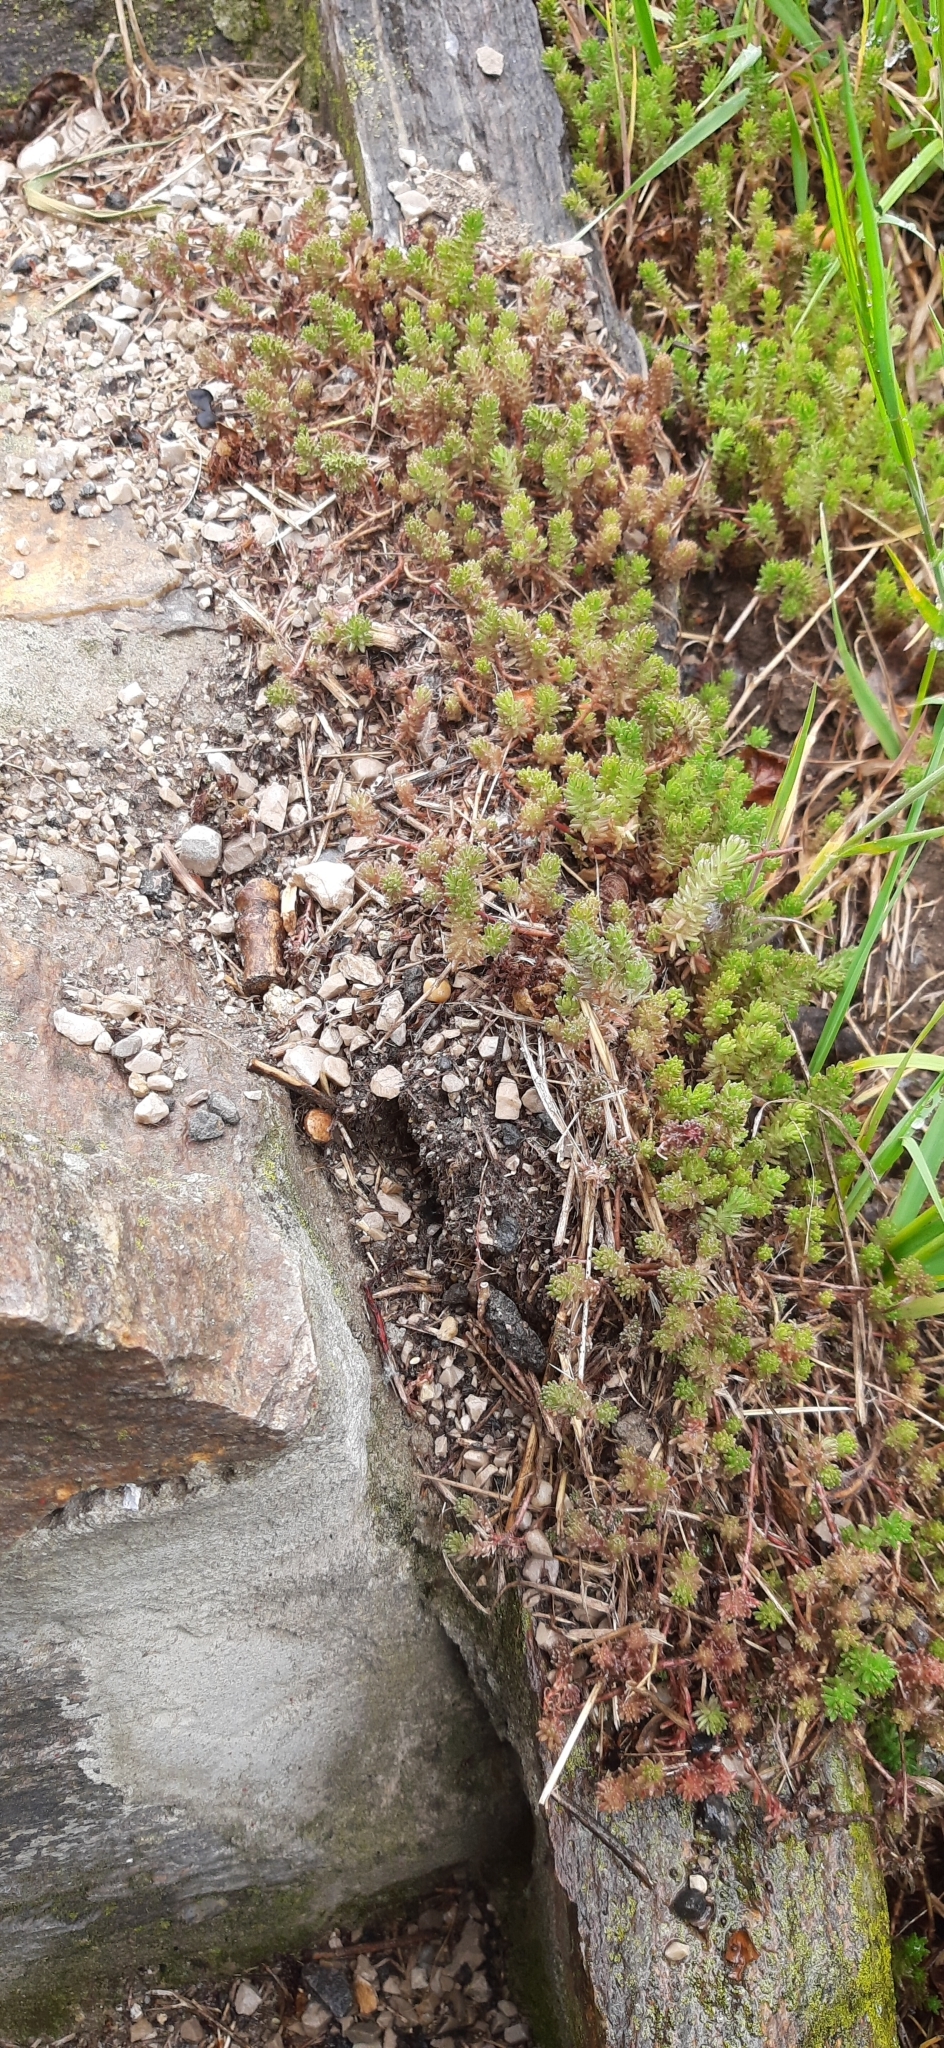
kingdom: Plantae
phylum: Tracheophyta
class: Magnoliopsida
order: Saxifragales
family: Crassulaceae
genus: Sedum
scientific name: Sedum sexangulare
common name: Tasteless stonecrop
